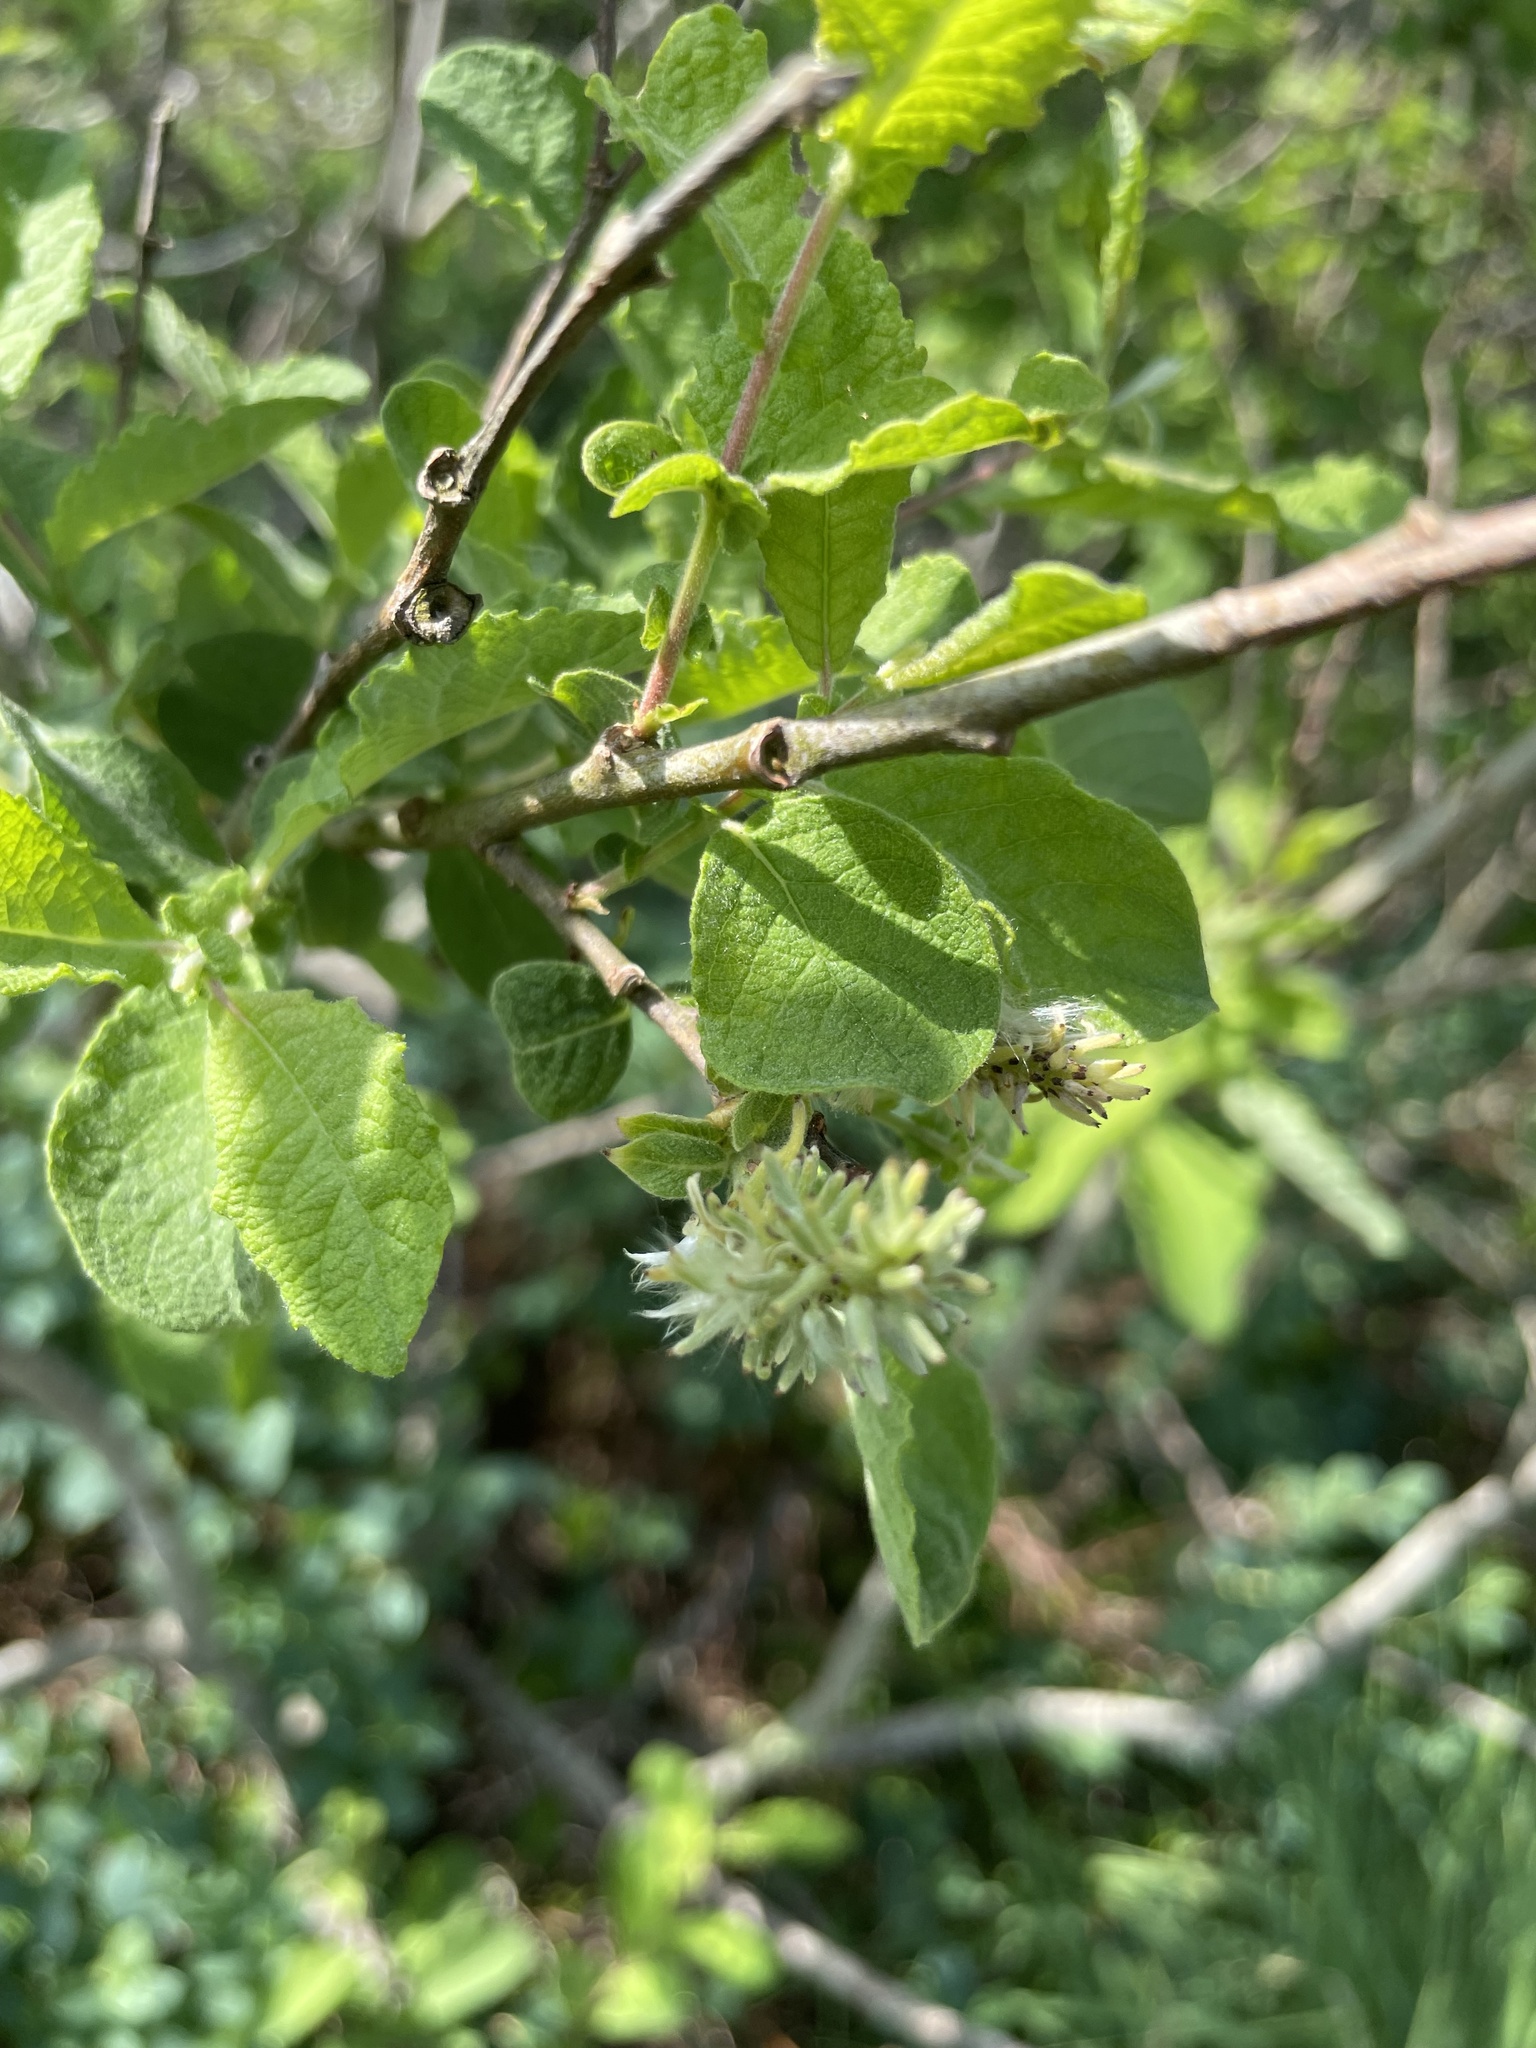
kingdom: Plantae
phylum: Tracheophyta
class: Magnoliopsida
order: Malpighiales
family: Salicaceae
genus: Salix
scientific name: Salix aurita
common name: Eared willow
